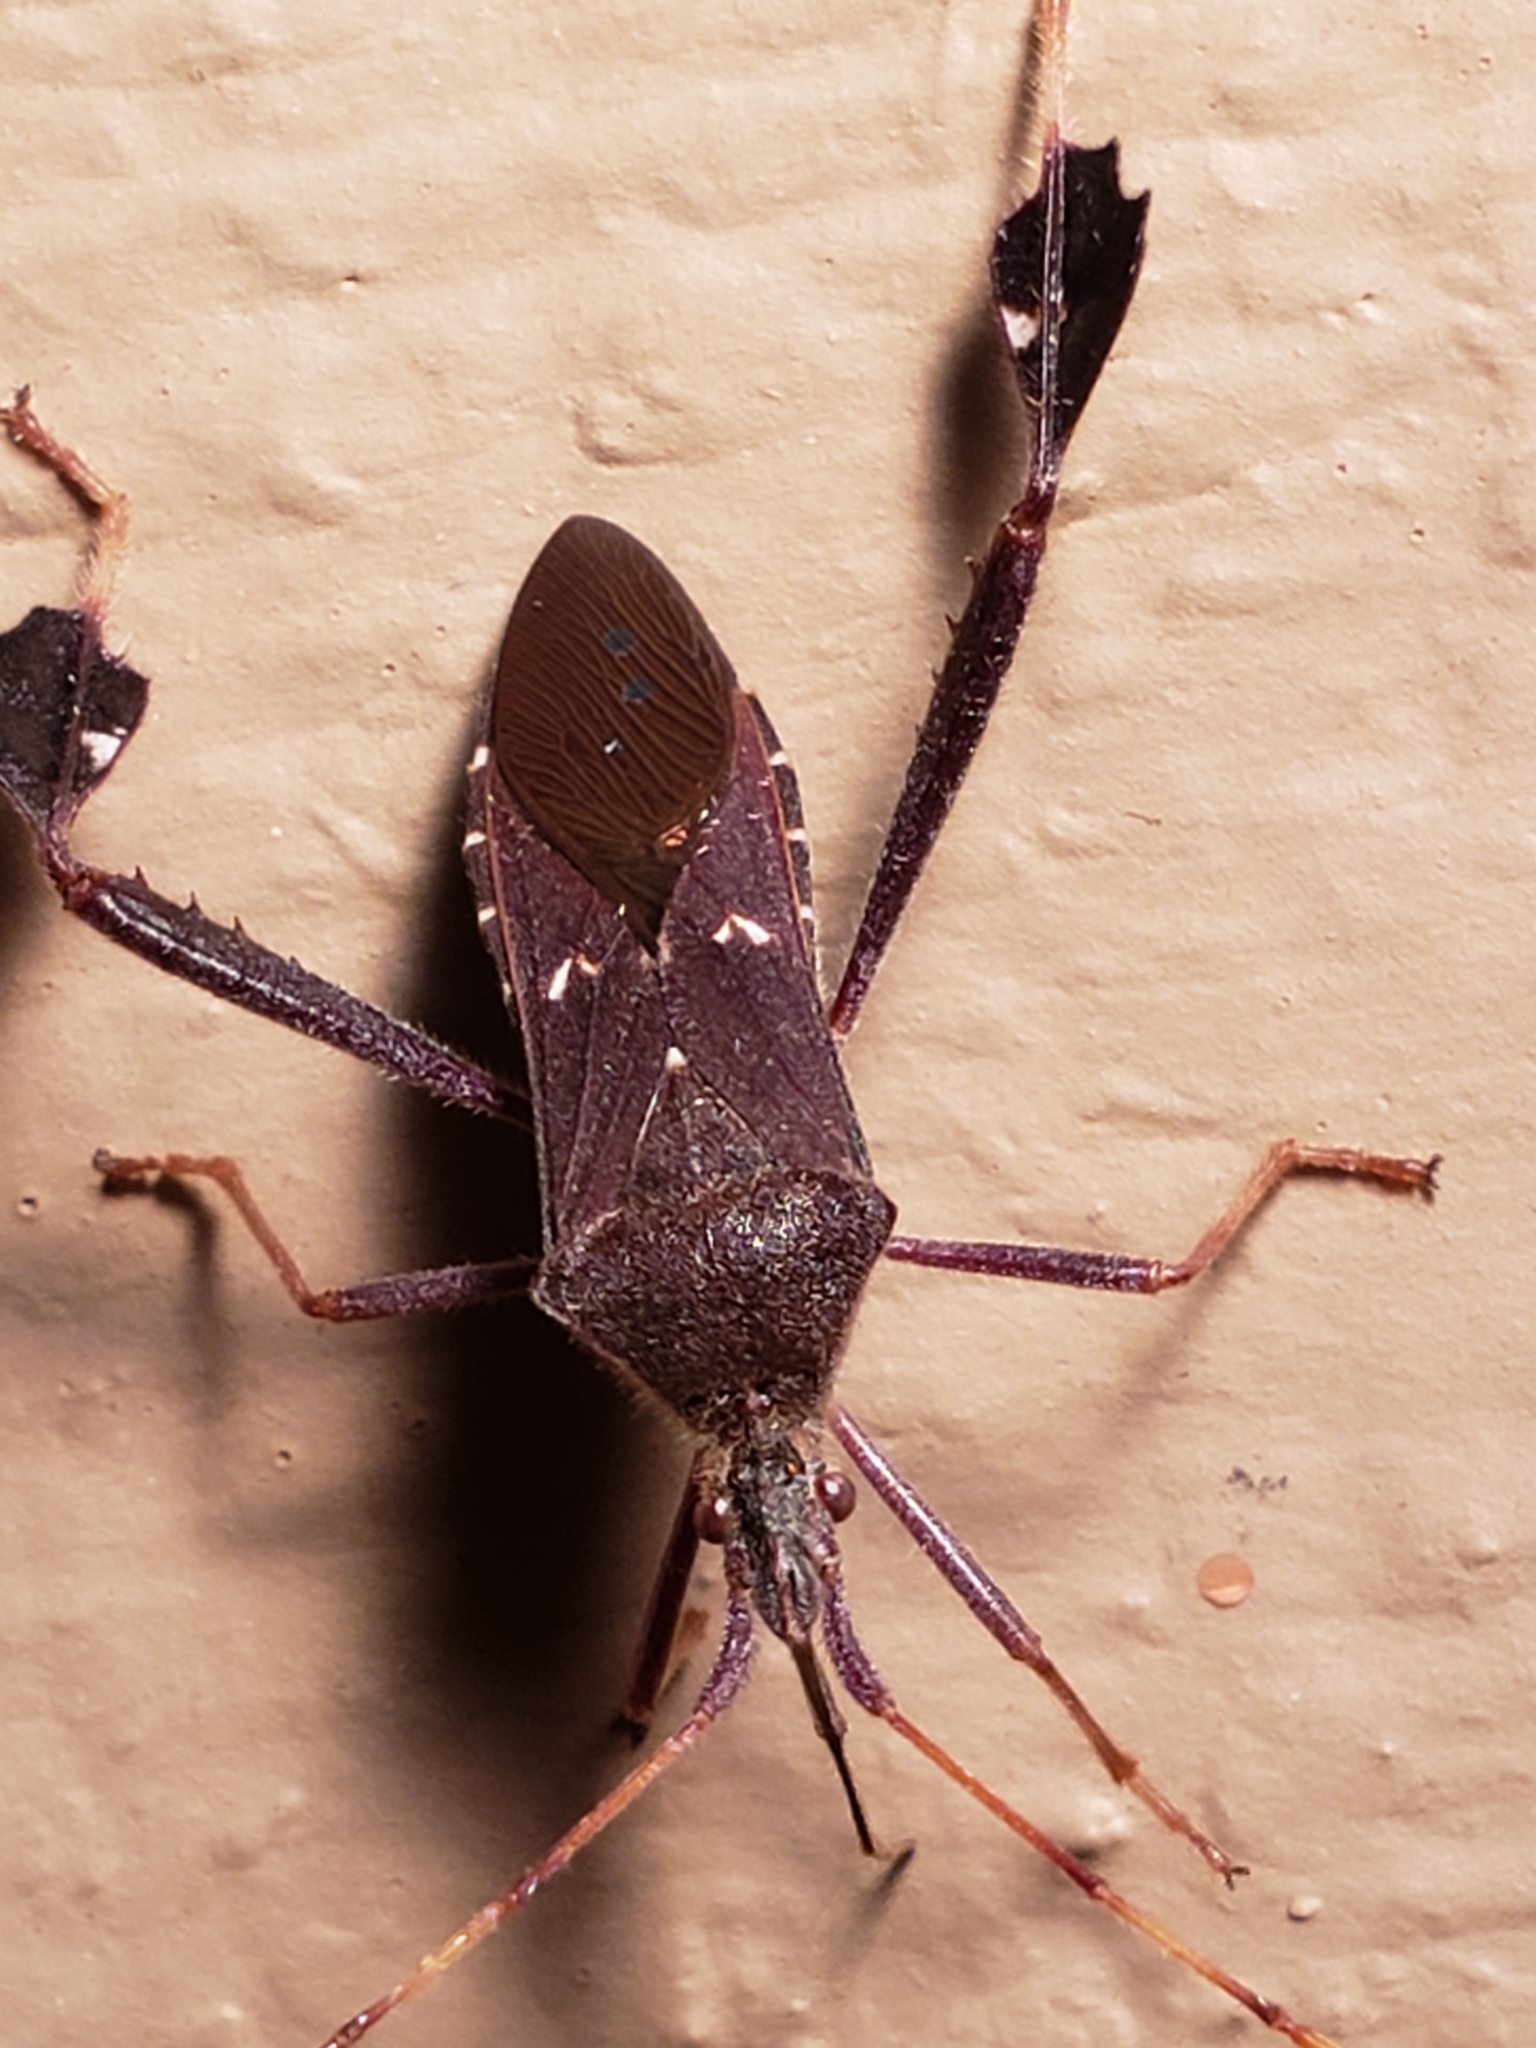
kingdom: Animalia
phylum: Arthropoda
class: Insecta
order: Hemiptera
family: Coreidae
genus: Leptoglossus
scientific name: Leptoglossus oppositus
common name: Northern leaf-footed bug
